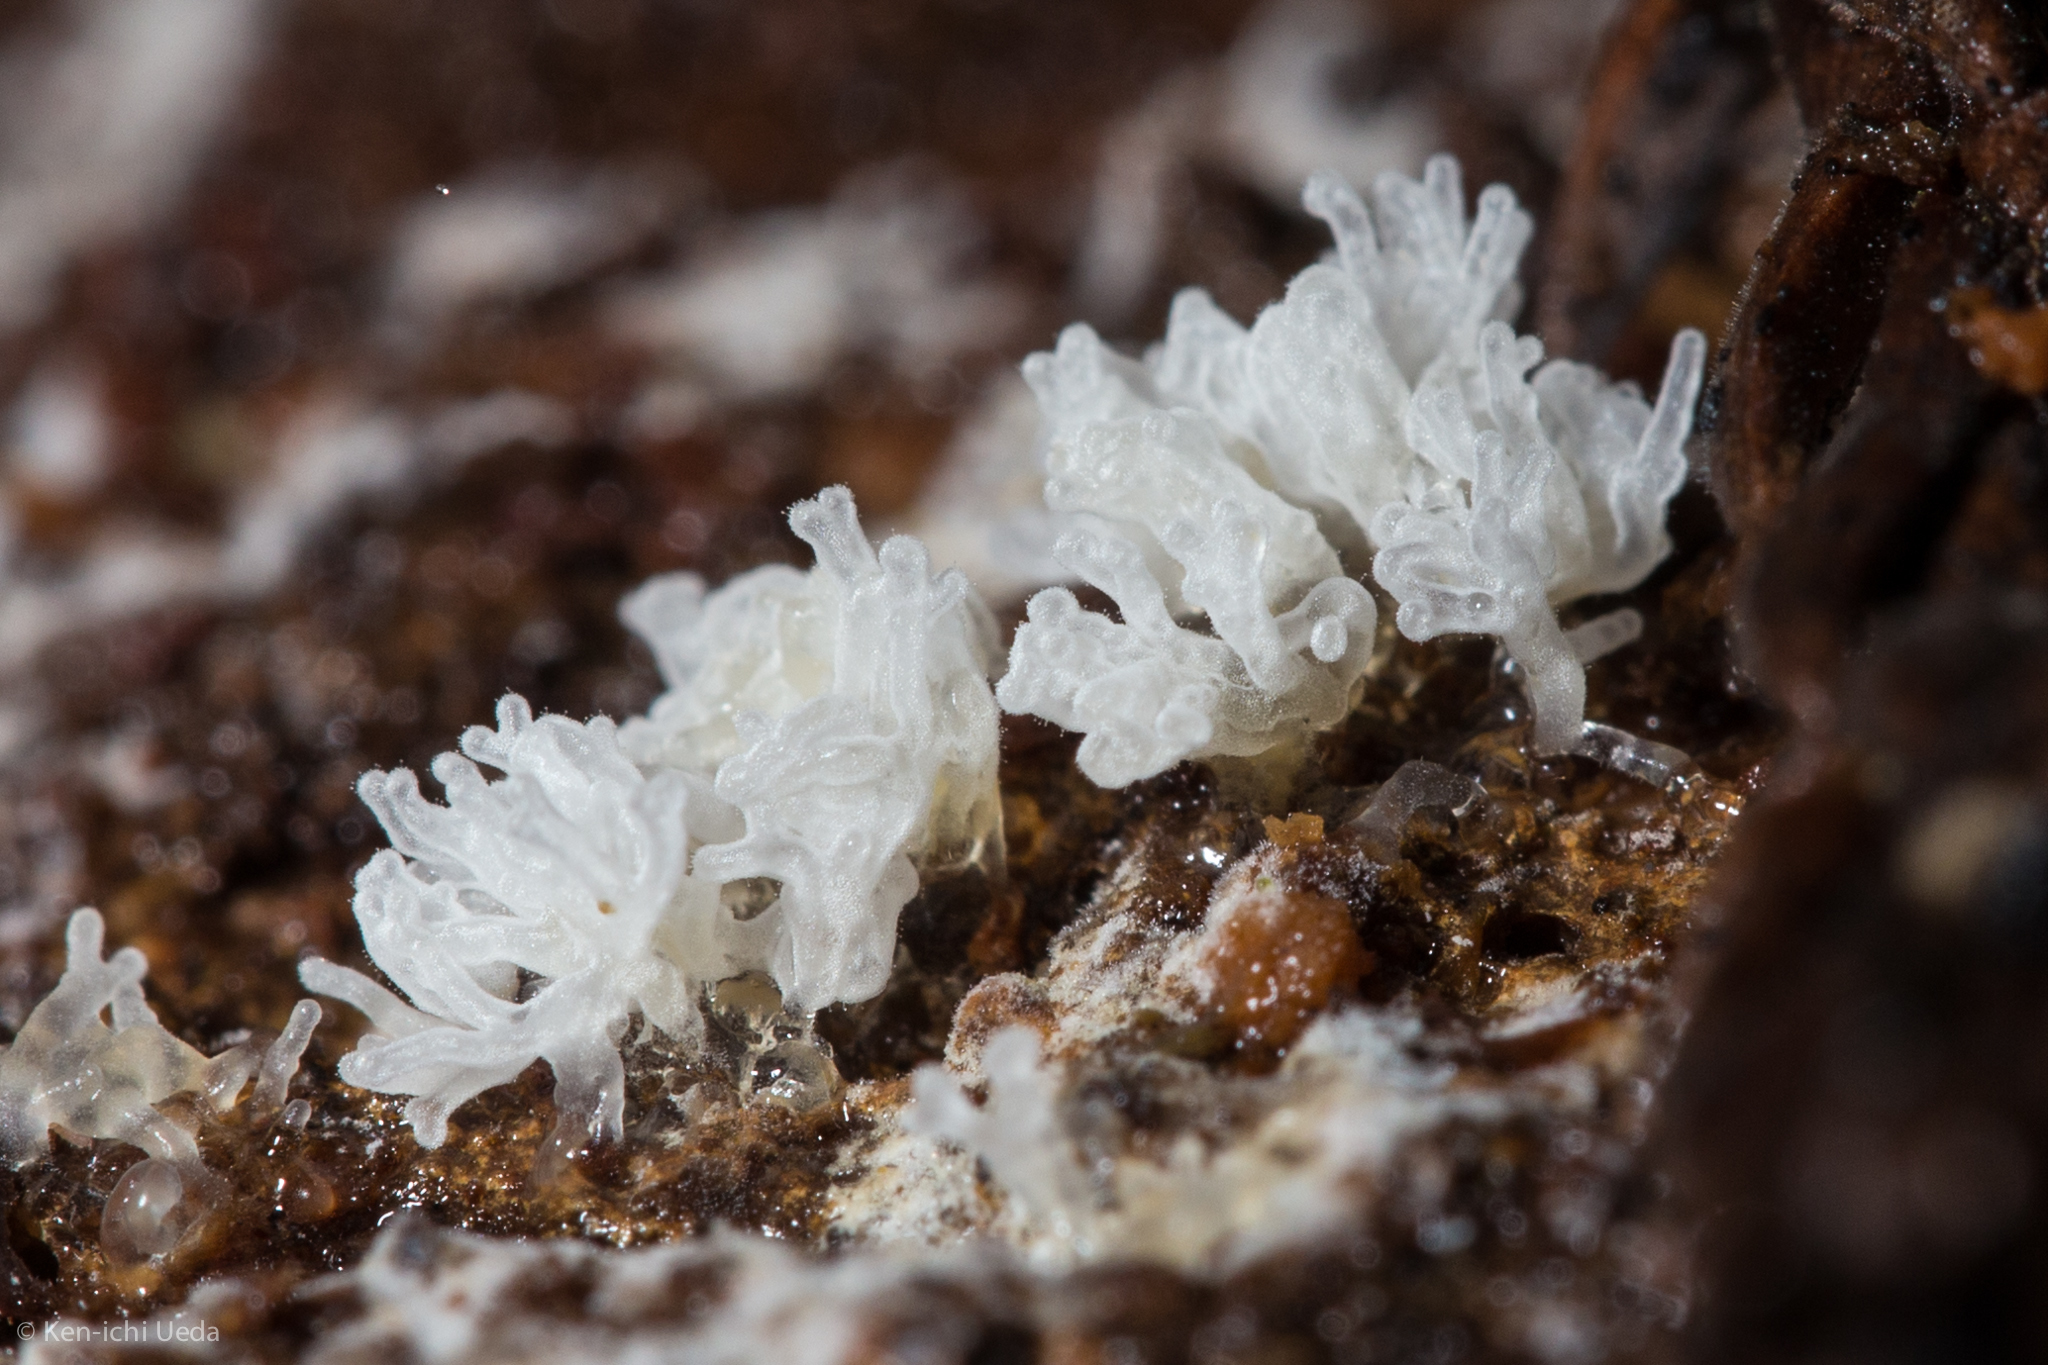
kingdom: Protozoa
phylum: Mycetozoa
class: Protosteliomycetes
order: Ceratiomyxales
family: Ceratiomyxaceae
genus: Ceratiomyxa
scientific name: Ceratiomyxa fruticulosa
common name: Honeycomb coral slime mold
